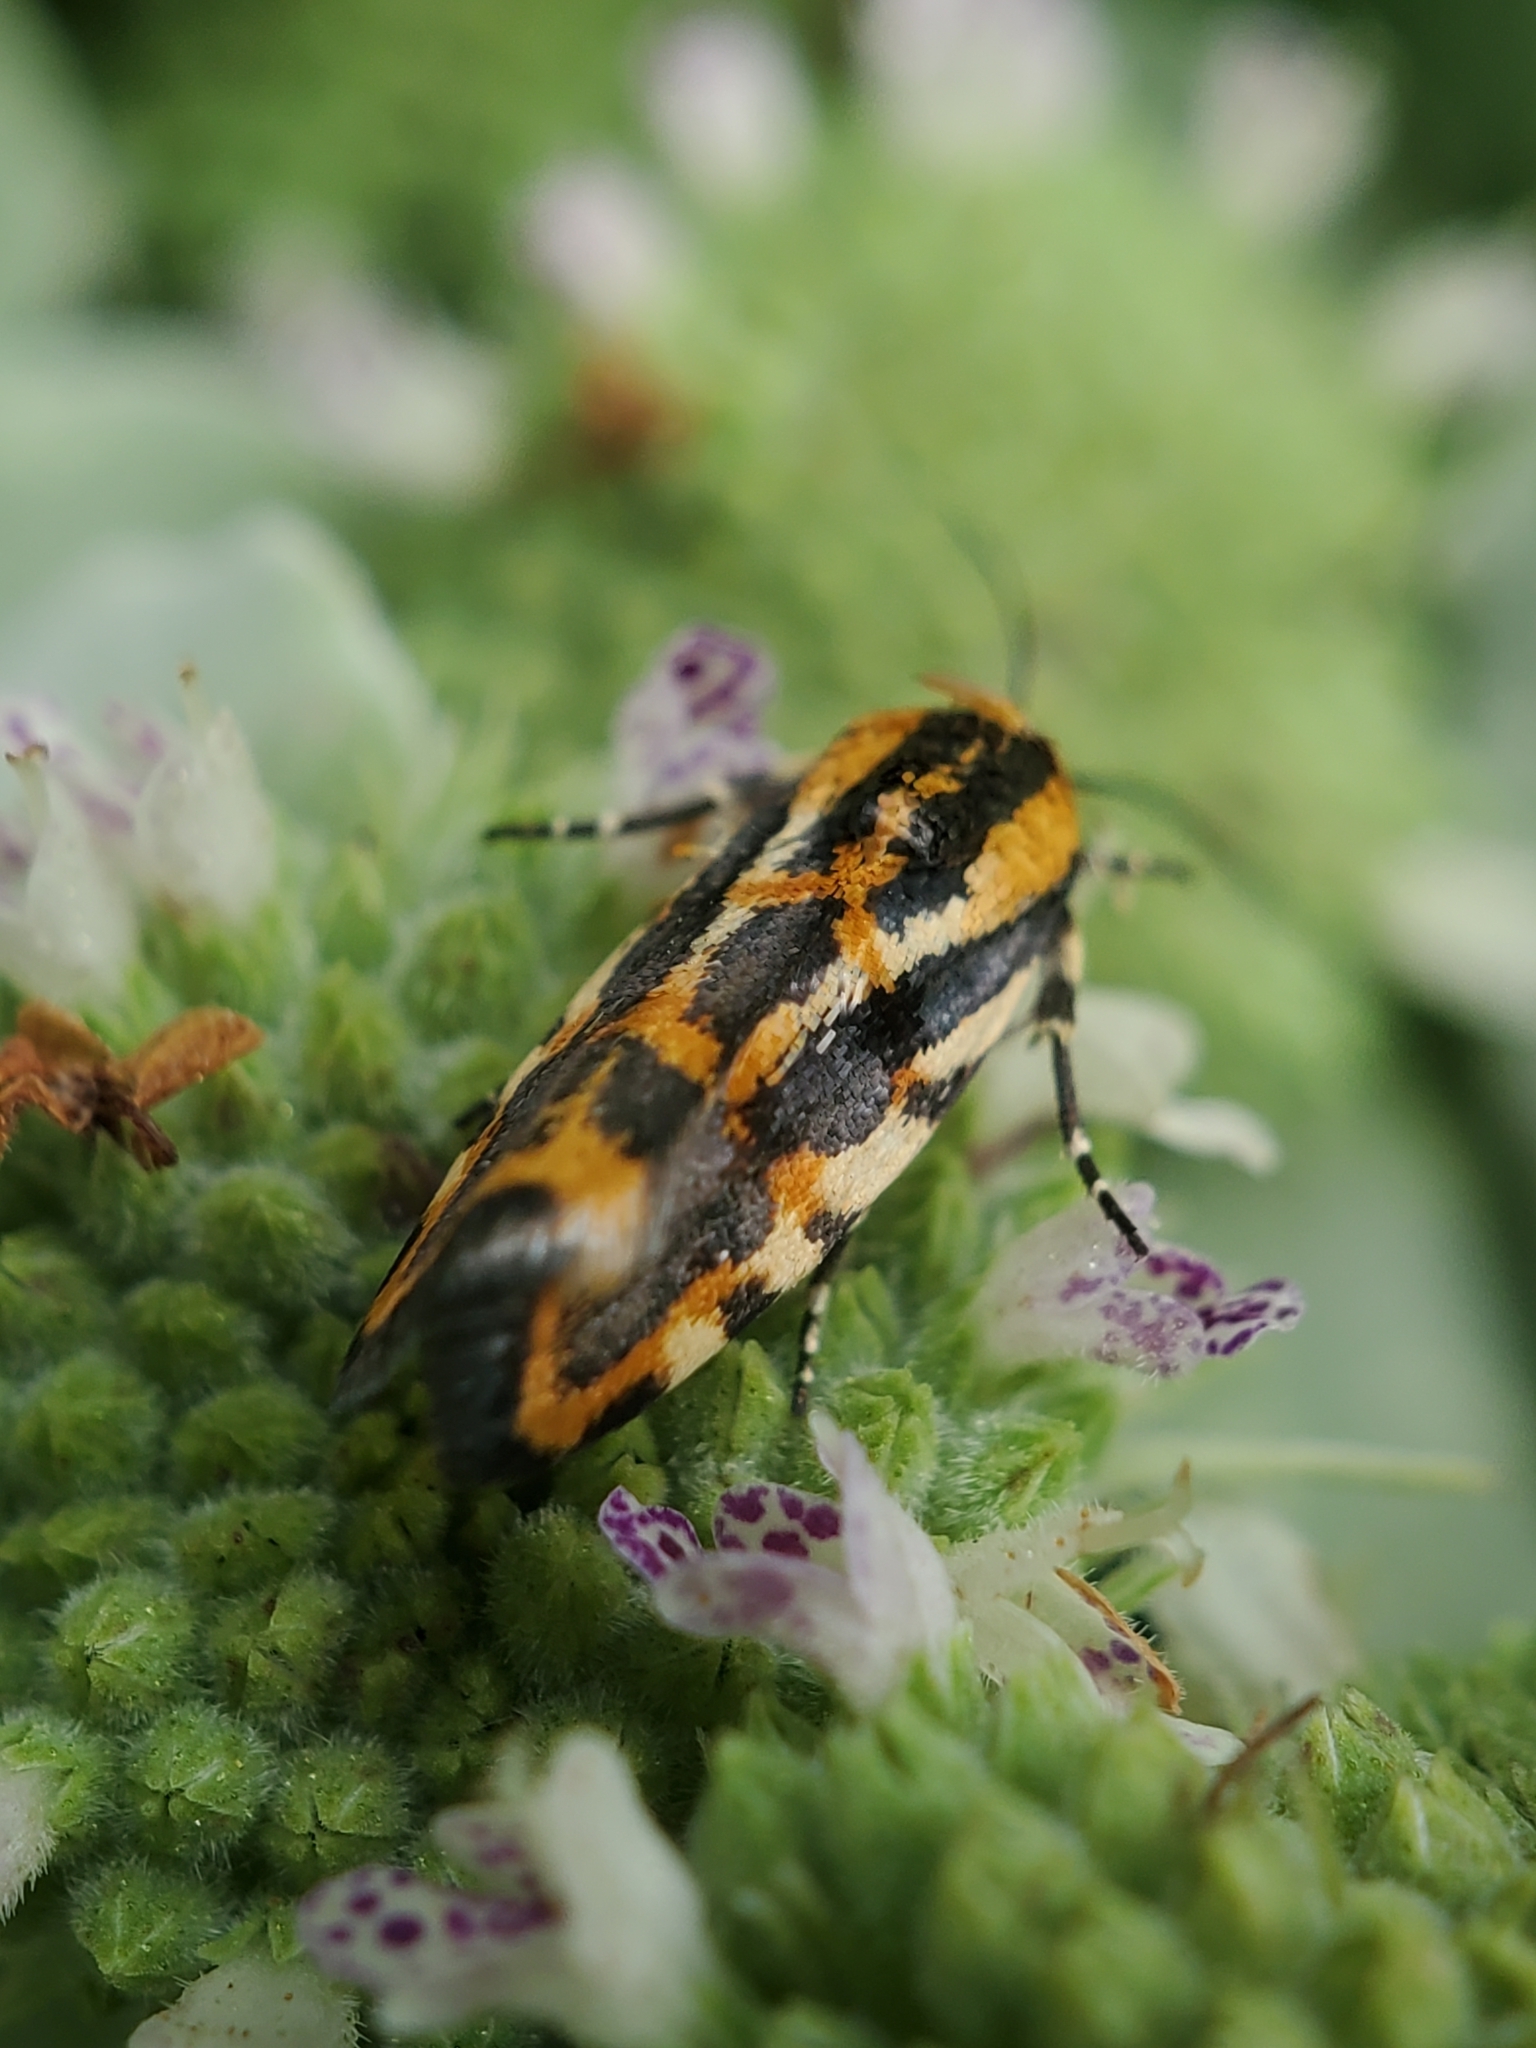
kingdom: Animalia
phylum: Arthropoda
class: Insecta
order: Lepidoptera
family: Noctuidae
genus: Acontia
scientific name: Acontia leo
